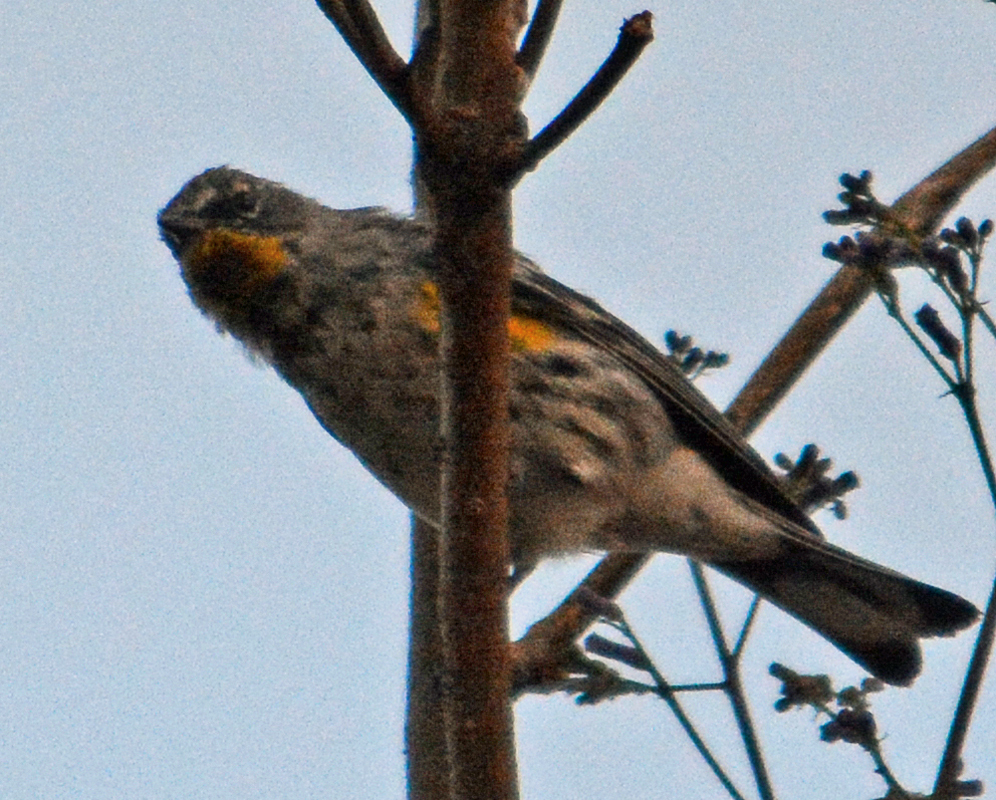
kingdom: Animalia
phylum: Chordata
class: Aves
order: Passeriformes
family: Parulidae
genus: Setophaga
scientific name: Setophaga auduboni
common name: Audubon's warbler
